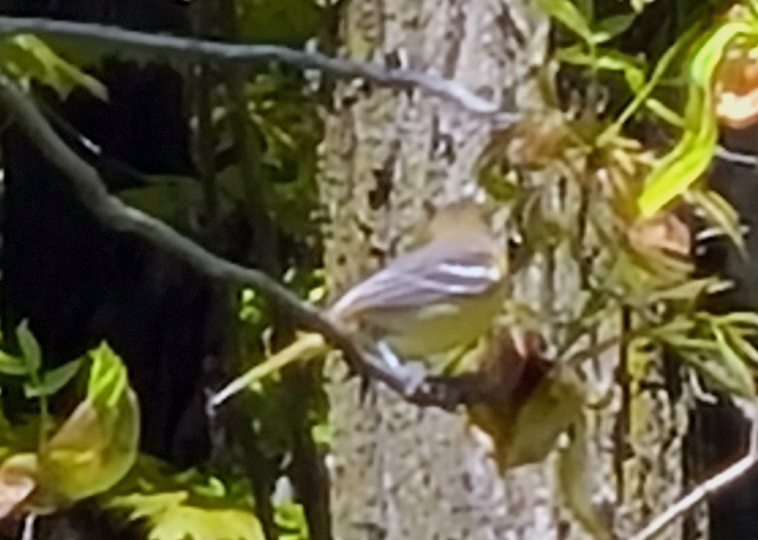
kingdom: Animalia
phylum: Chordata
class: Aves
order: Passeriformes
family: Icteridae
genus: Icterus
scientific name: Icterus galbula
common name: Baltimore oriole
